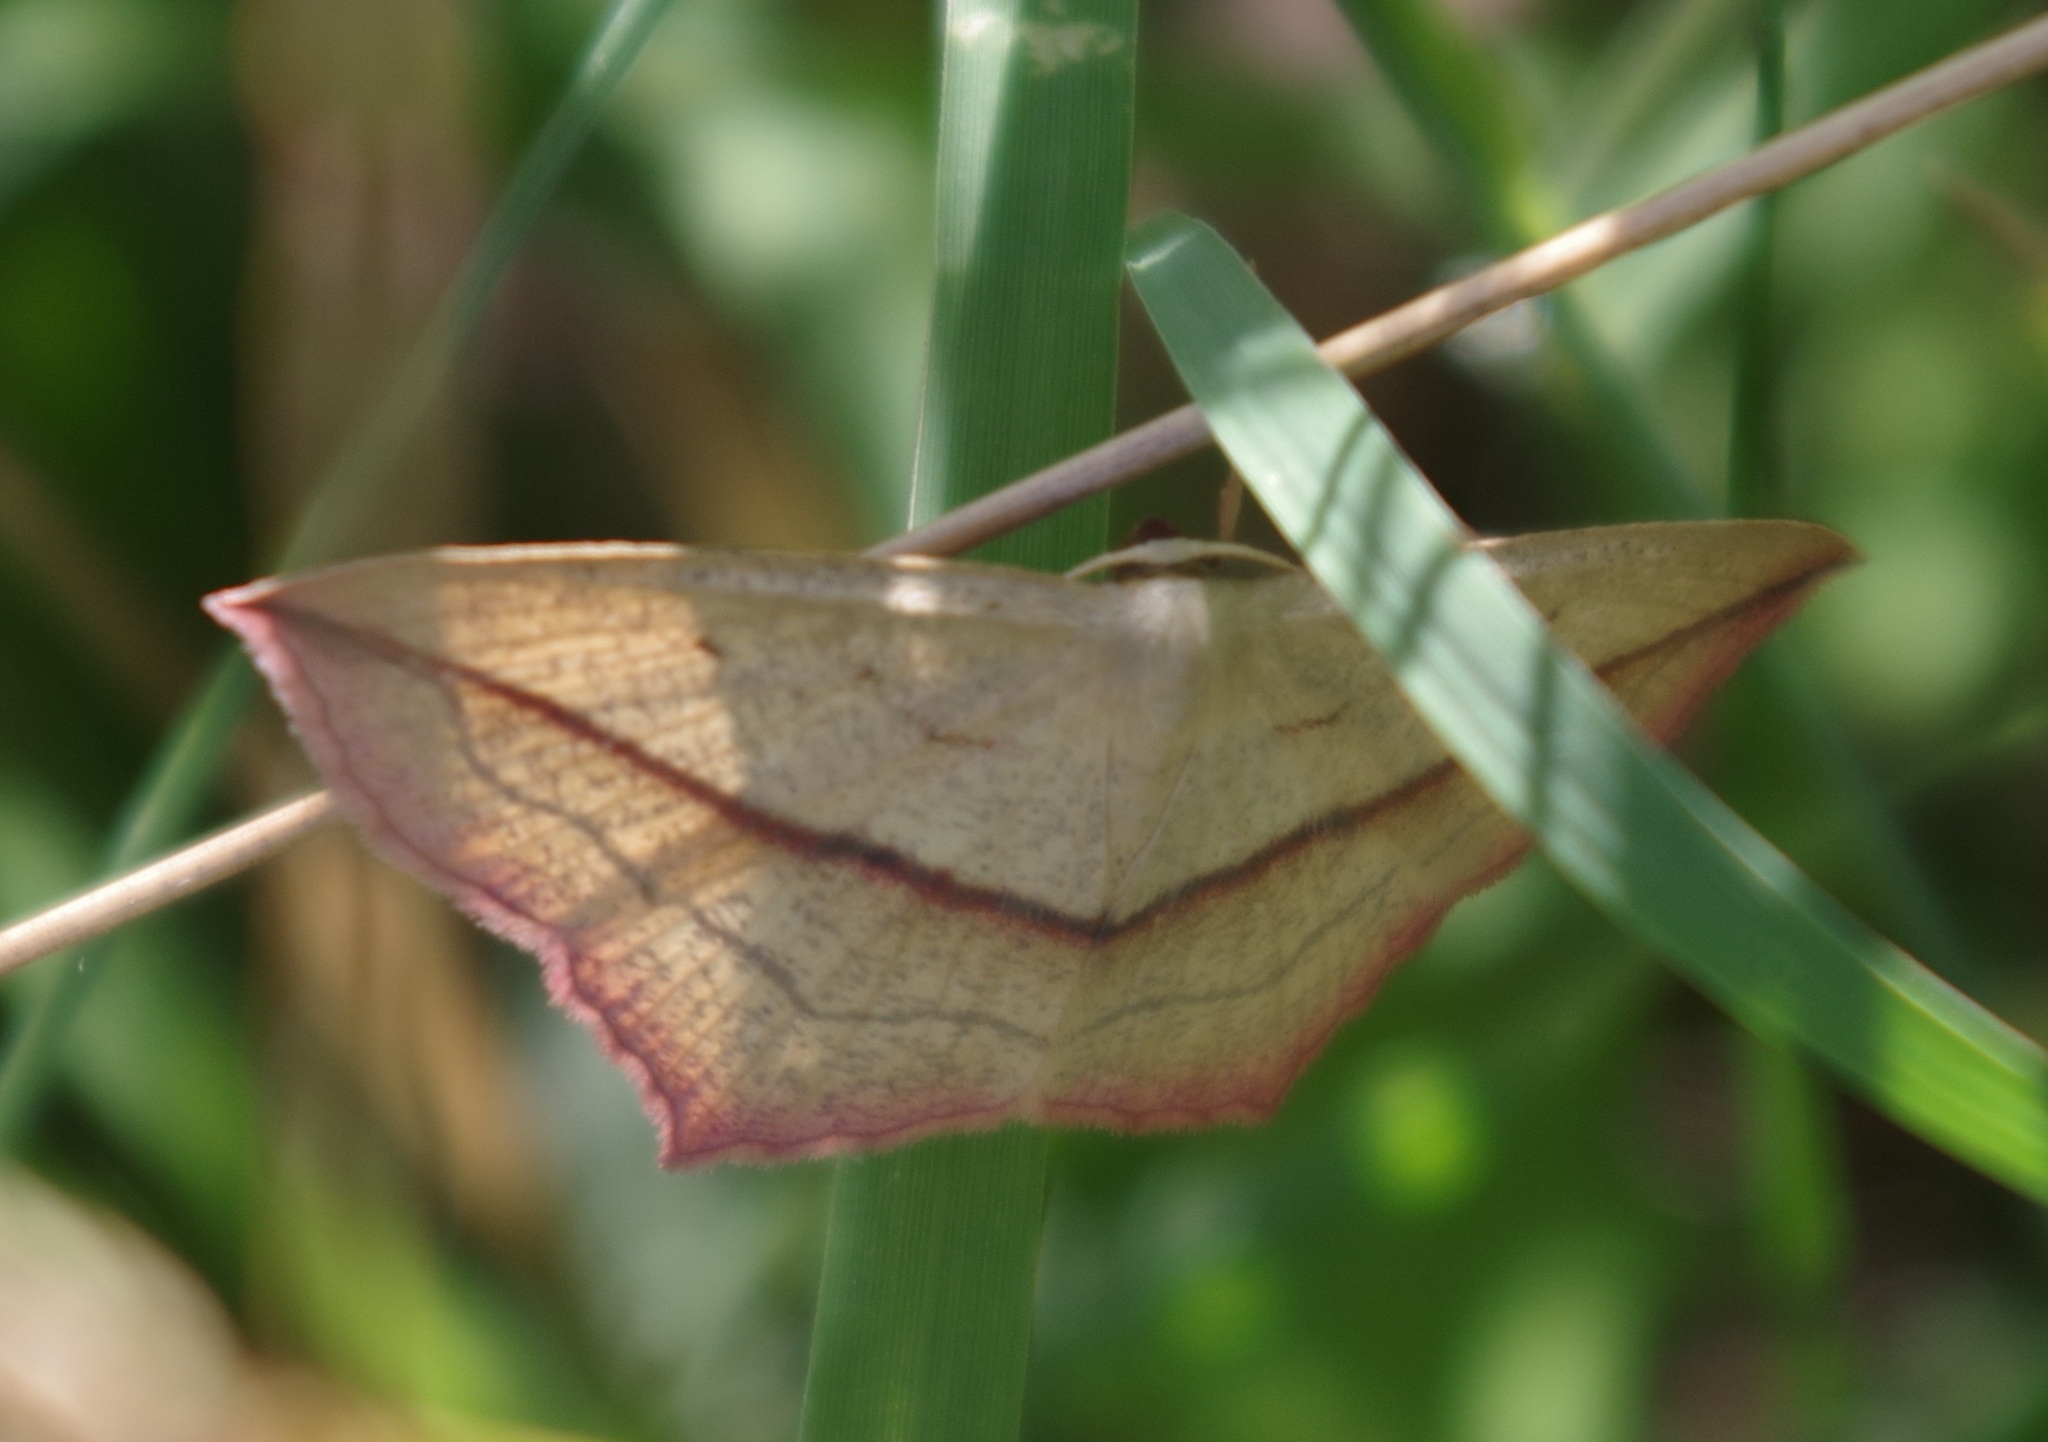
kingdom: Animalia
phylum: Arthropoda
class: Insecta
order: Lepidoptera
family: Geometridae
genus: Timandra
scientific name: Timandra comae
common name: Blood-vein
